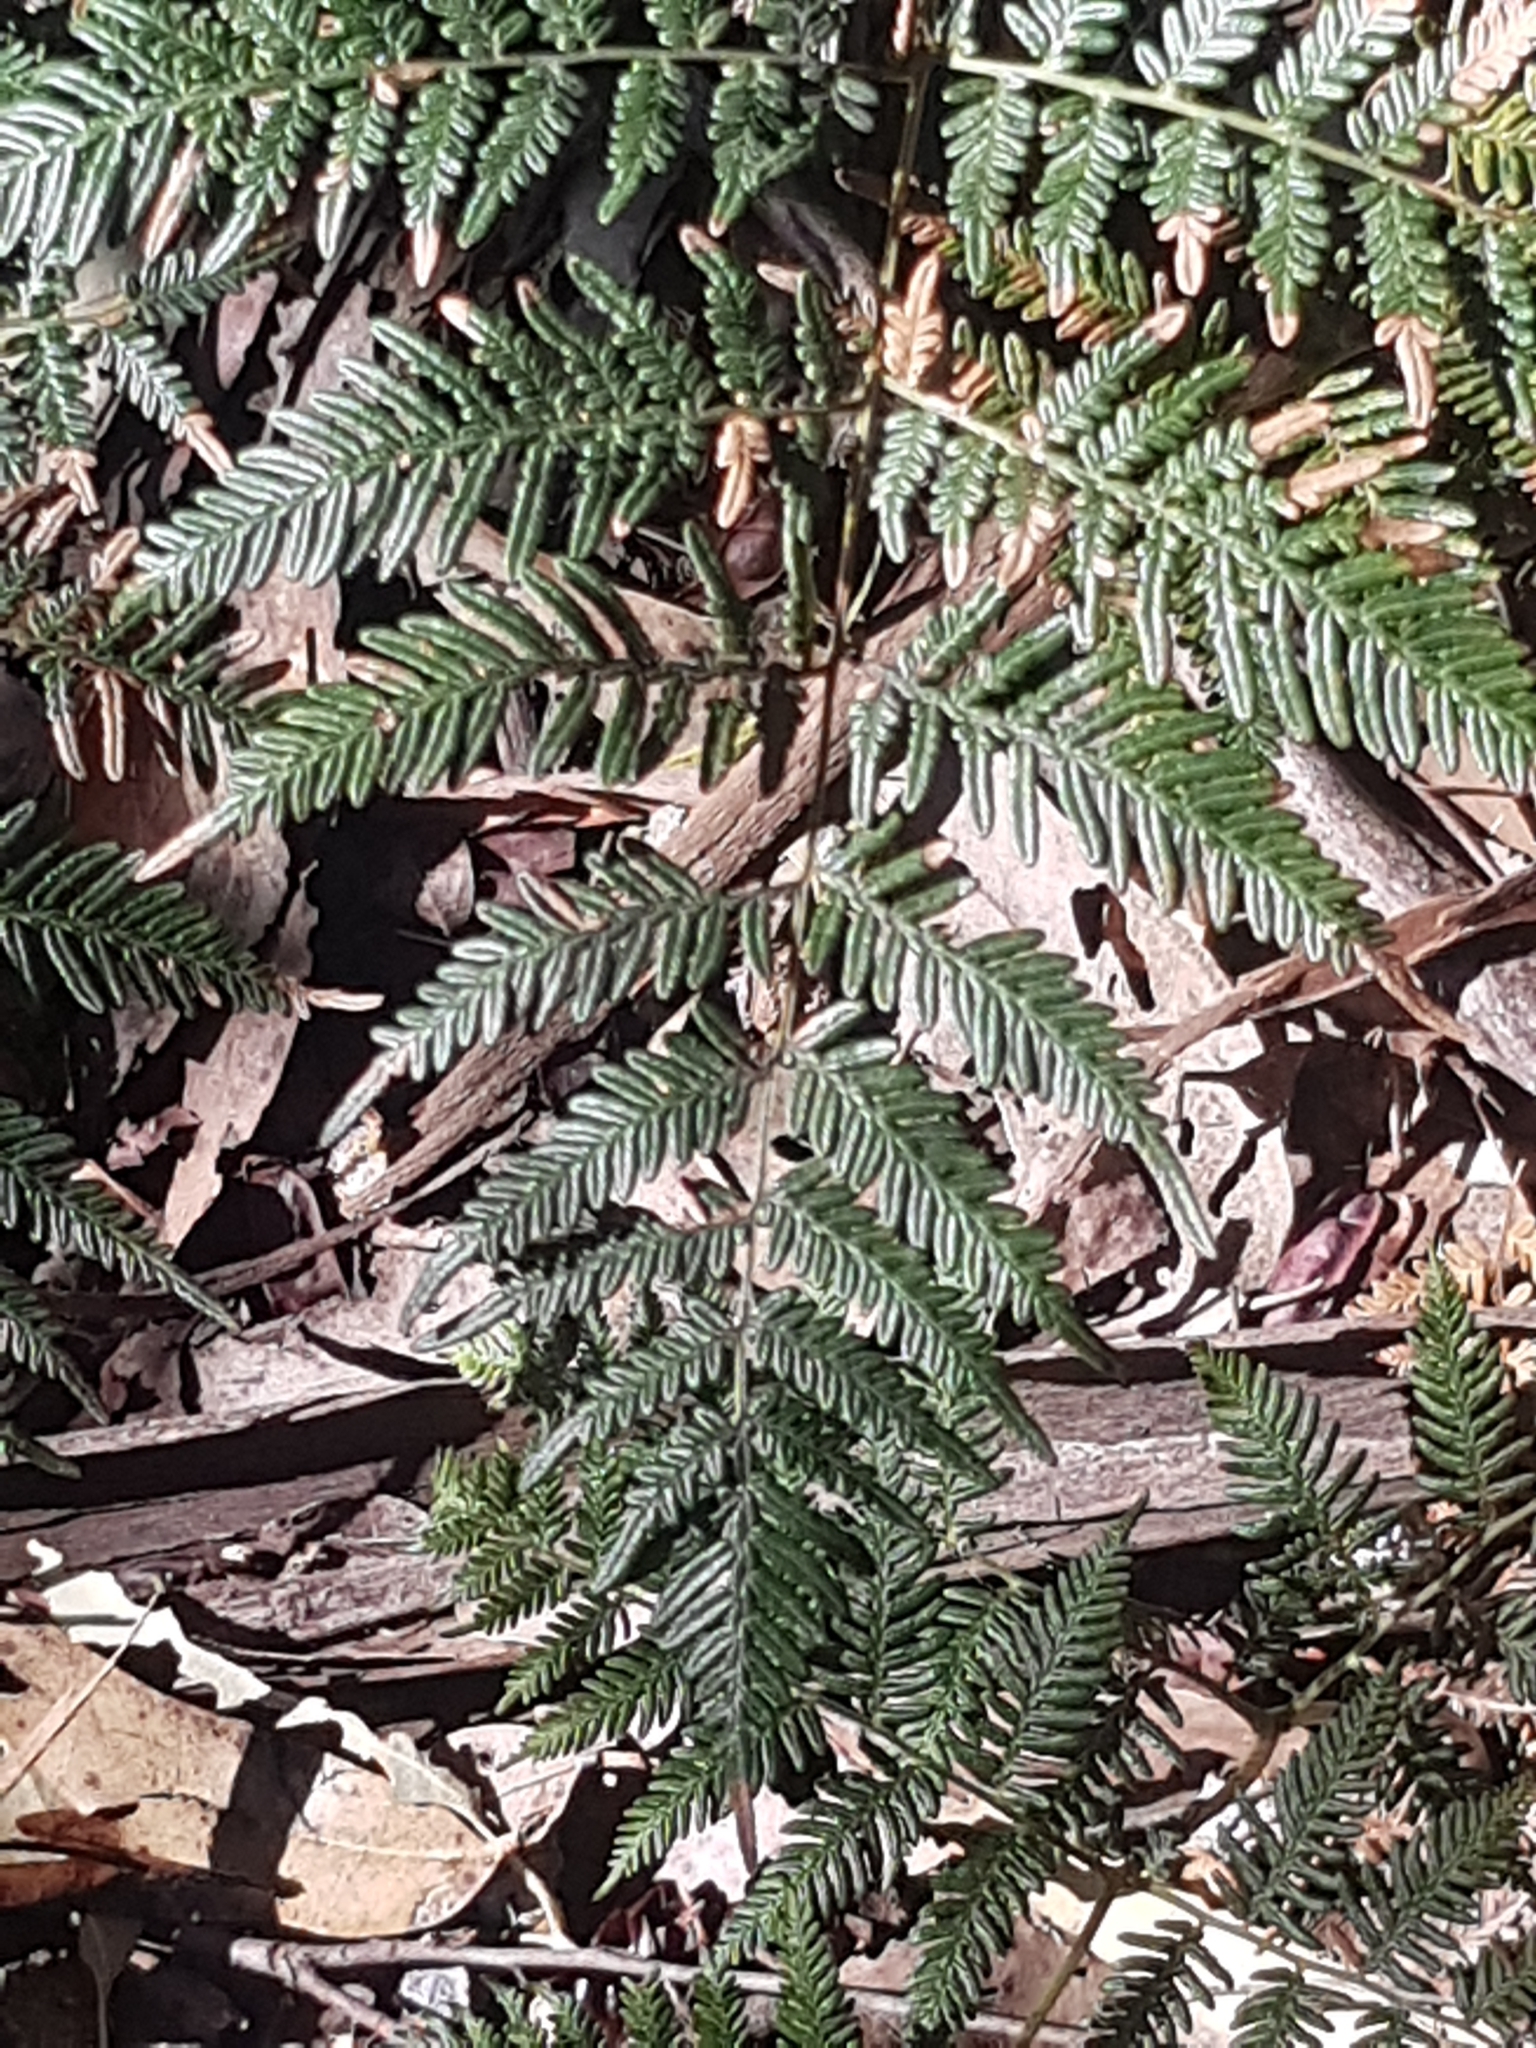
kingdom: Plantae
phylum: Tracheophyta
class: Polypodiopsida
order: Polypodiales
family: Dennstaedtiaceae
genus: Pteridium
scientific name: Pteridium esculentum
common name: Bracken fern
